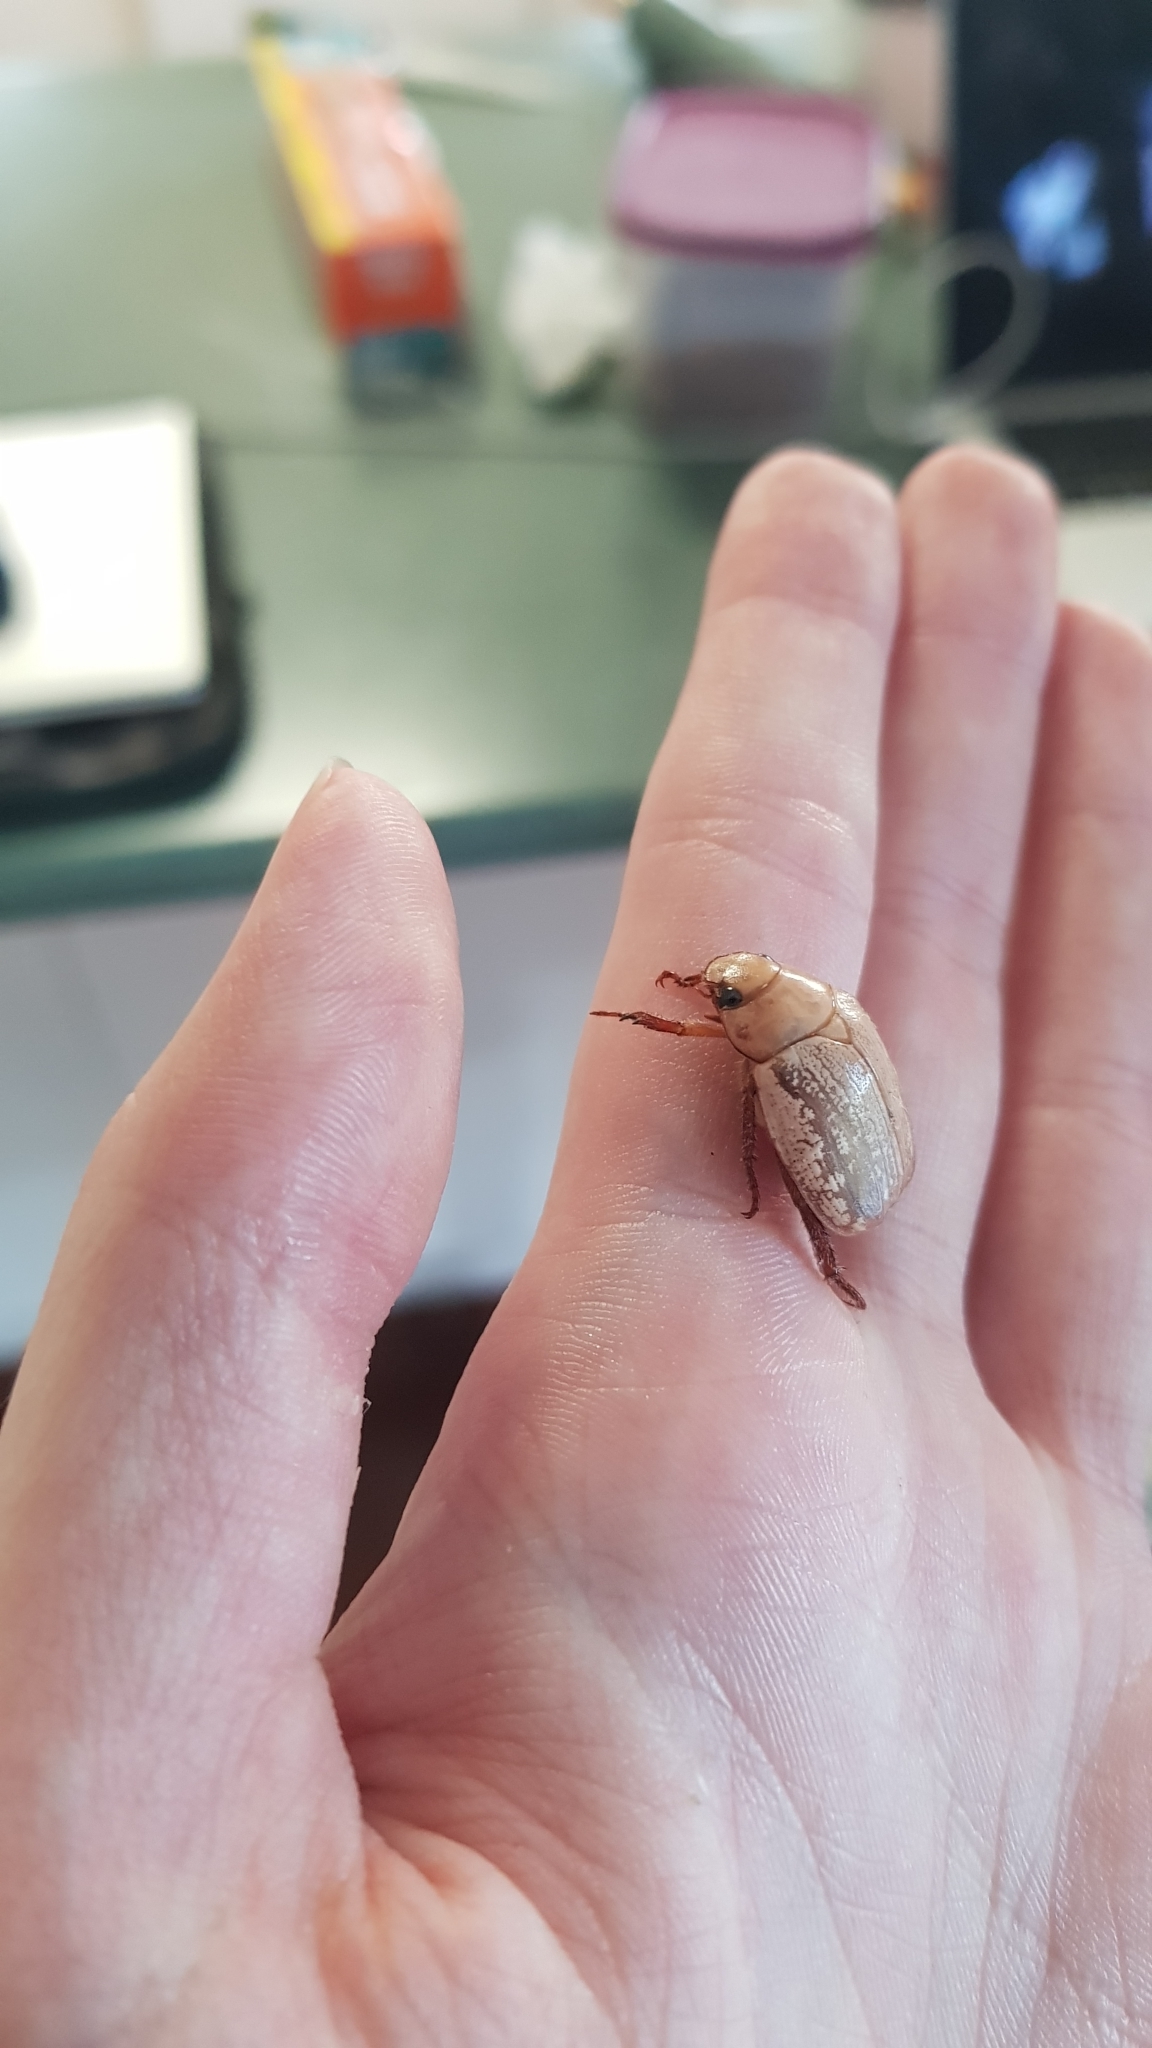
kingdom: Animalia
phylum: Arthropoda
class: Insecta
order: Coleoptera
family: Scarabaeidae
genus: Anoplognathus
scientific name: Anoplognathus concolor
